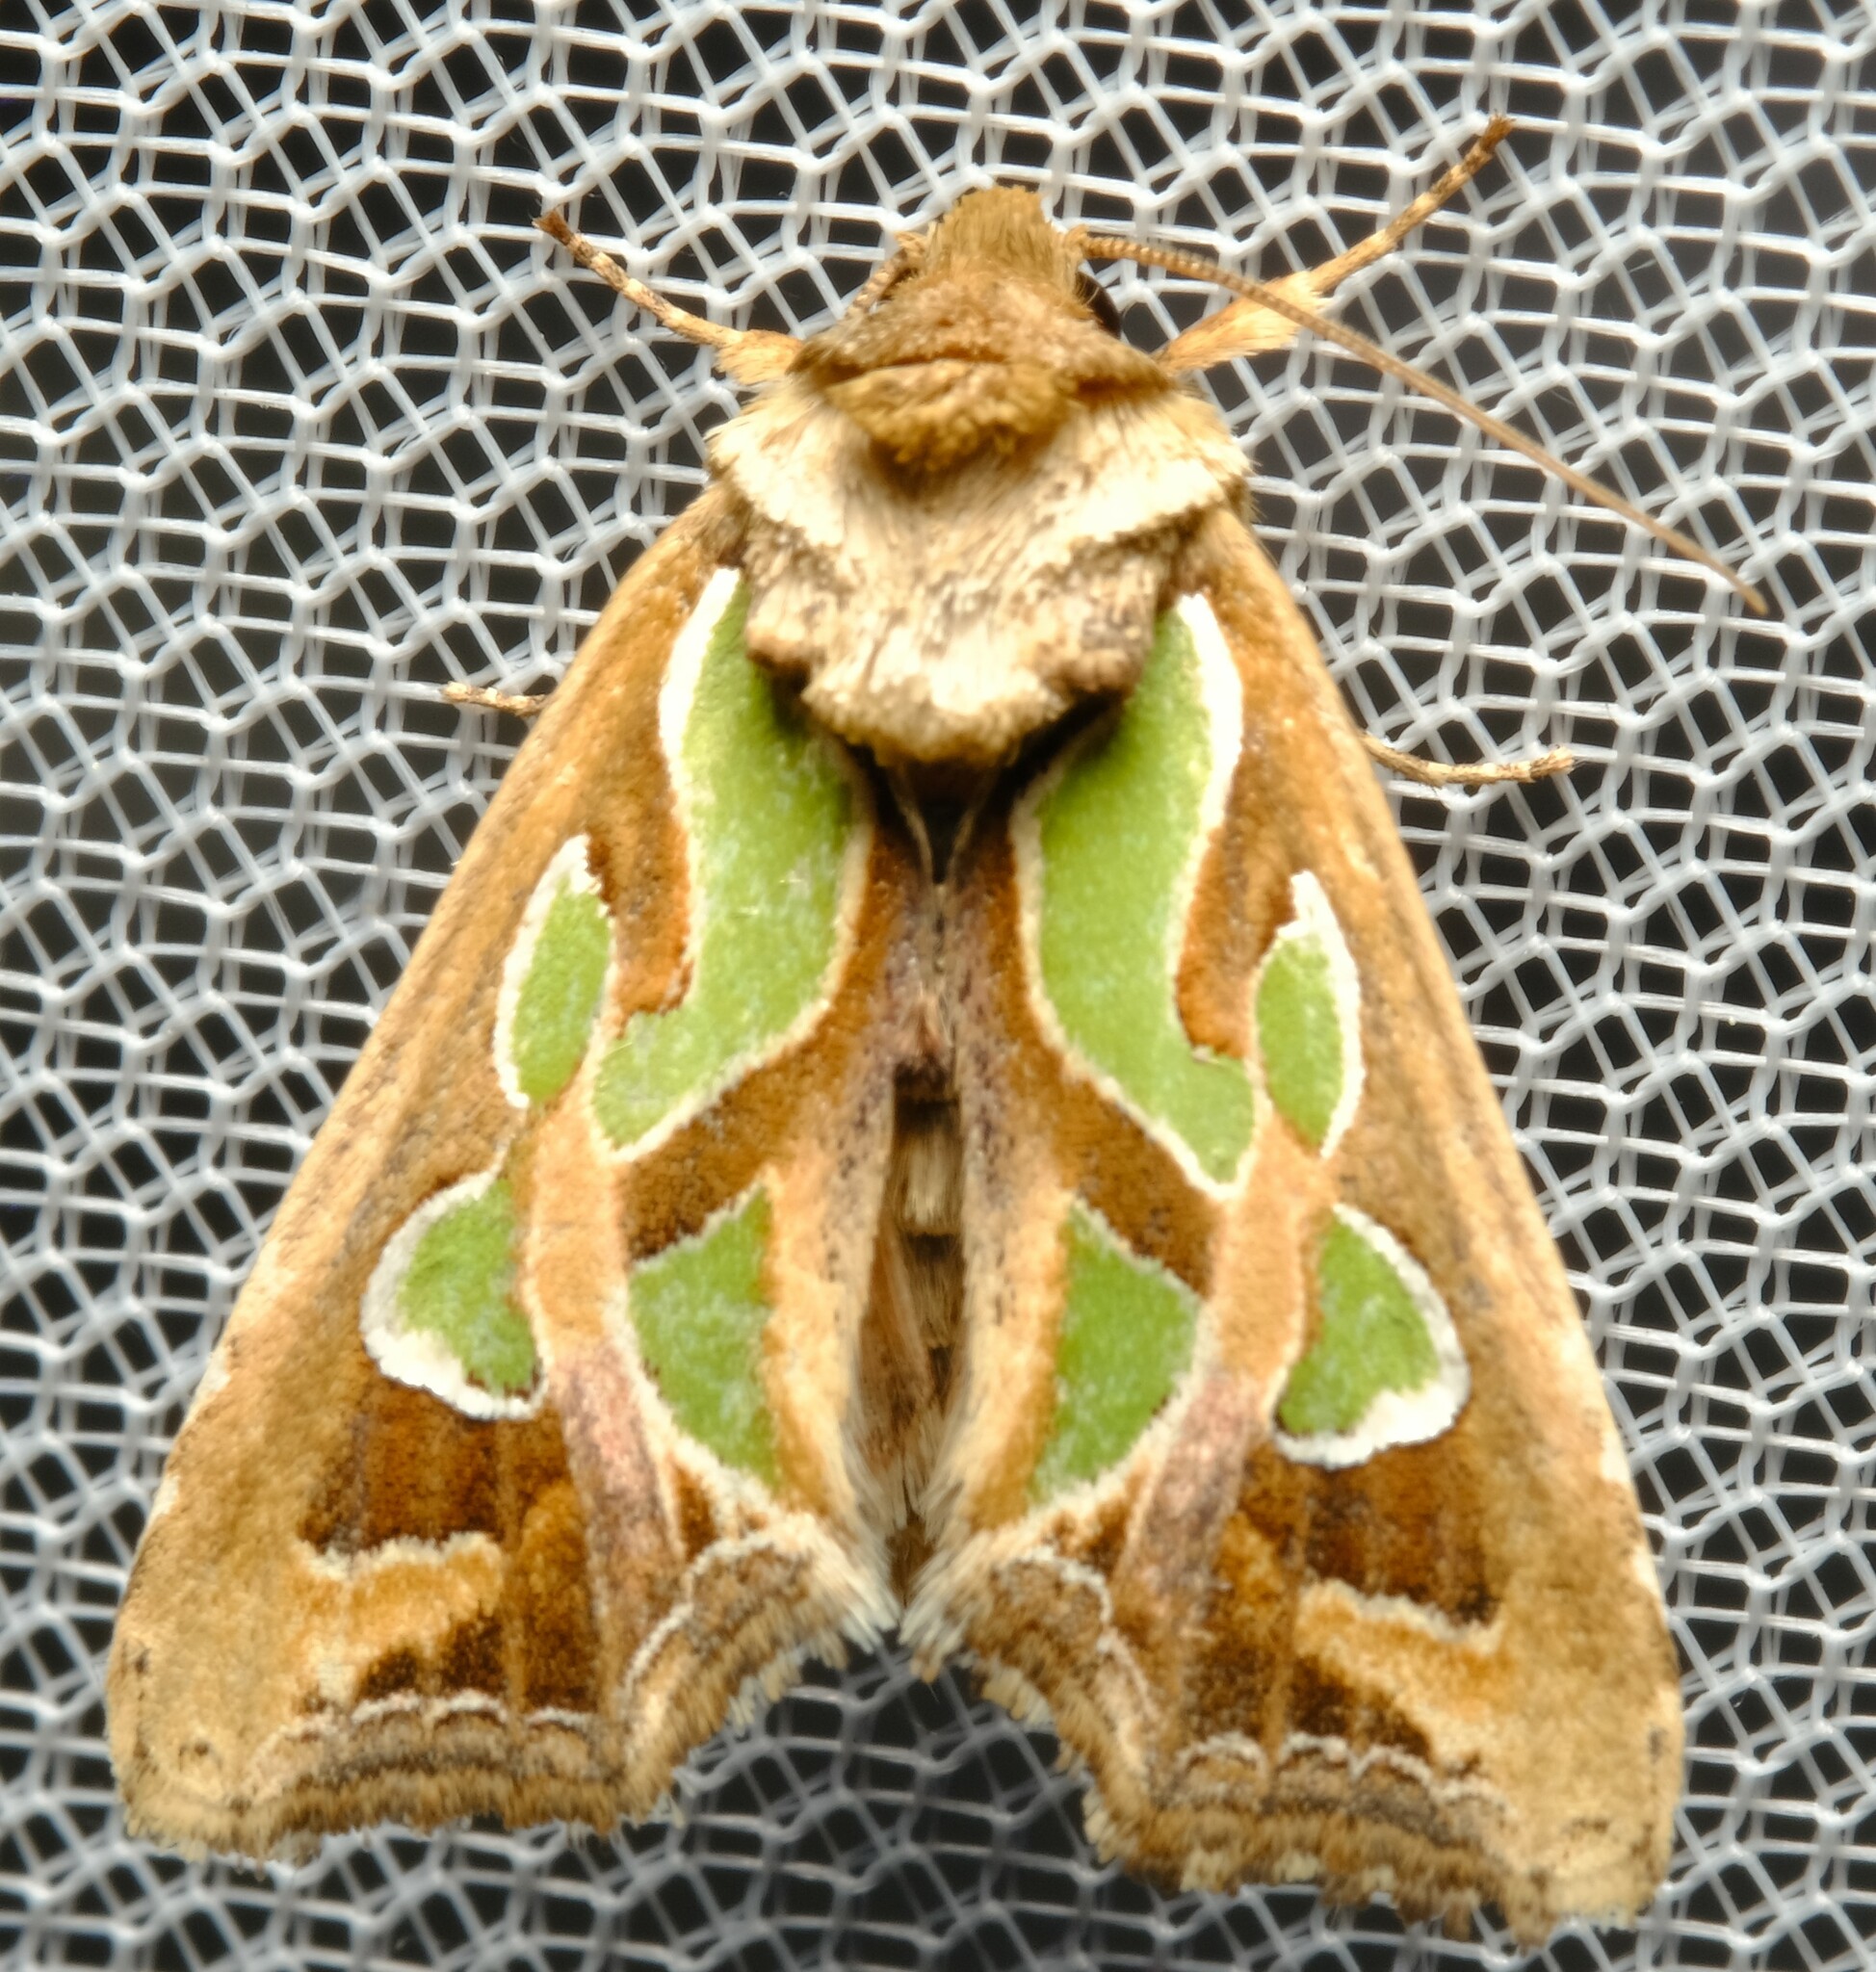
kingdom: Animalia
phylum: Arthropoda
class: Insecta
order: Lepidoptera
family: Noctuidae
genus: Cosmodes
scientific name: Cosmodes elegans
